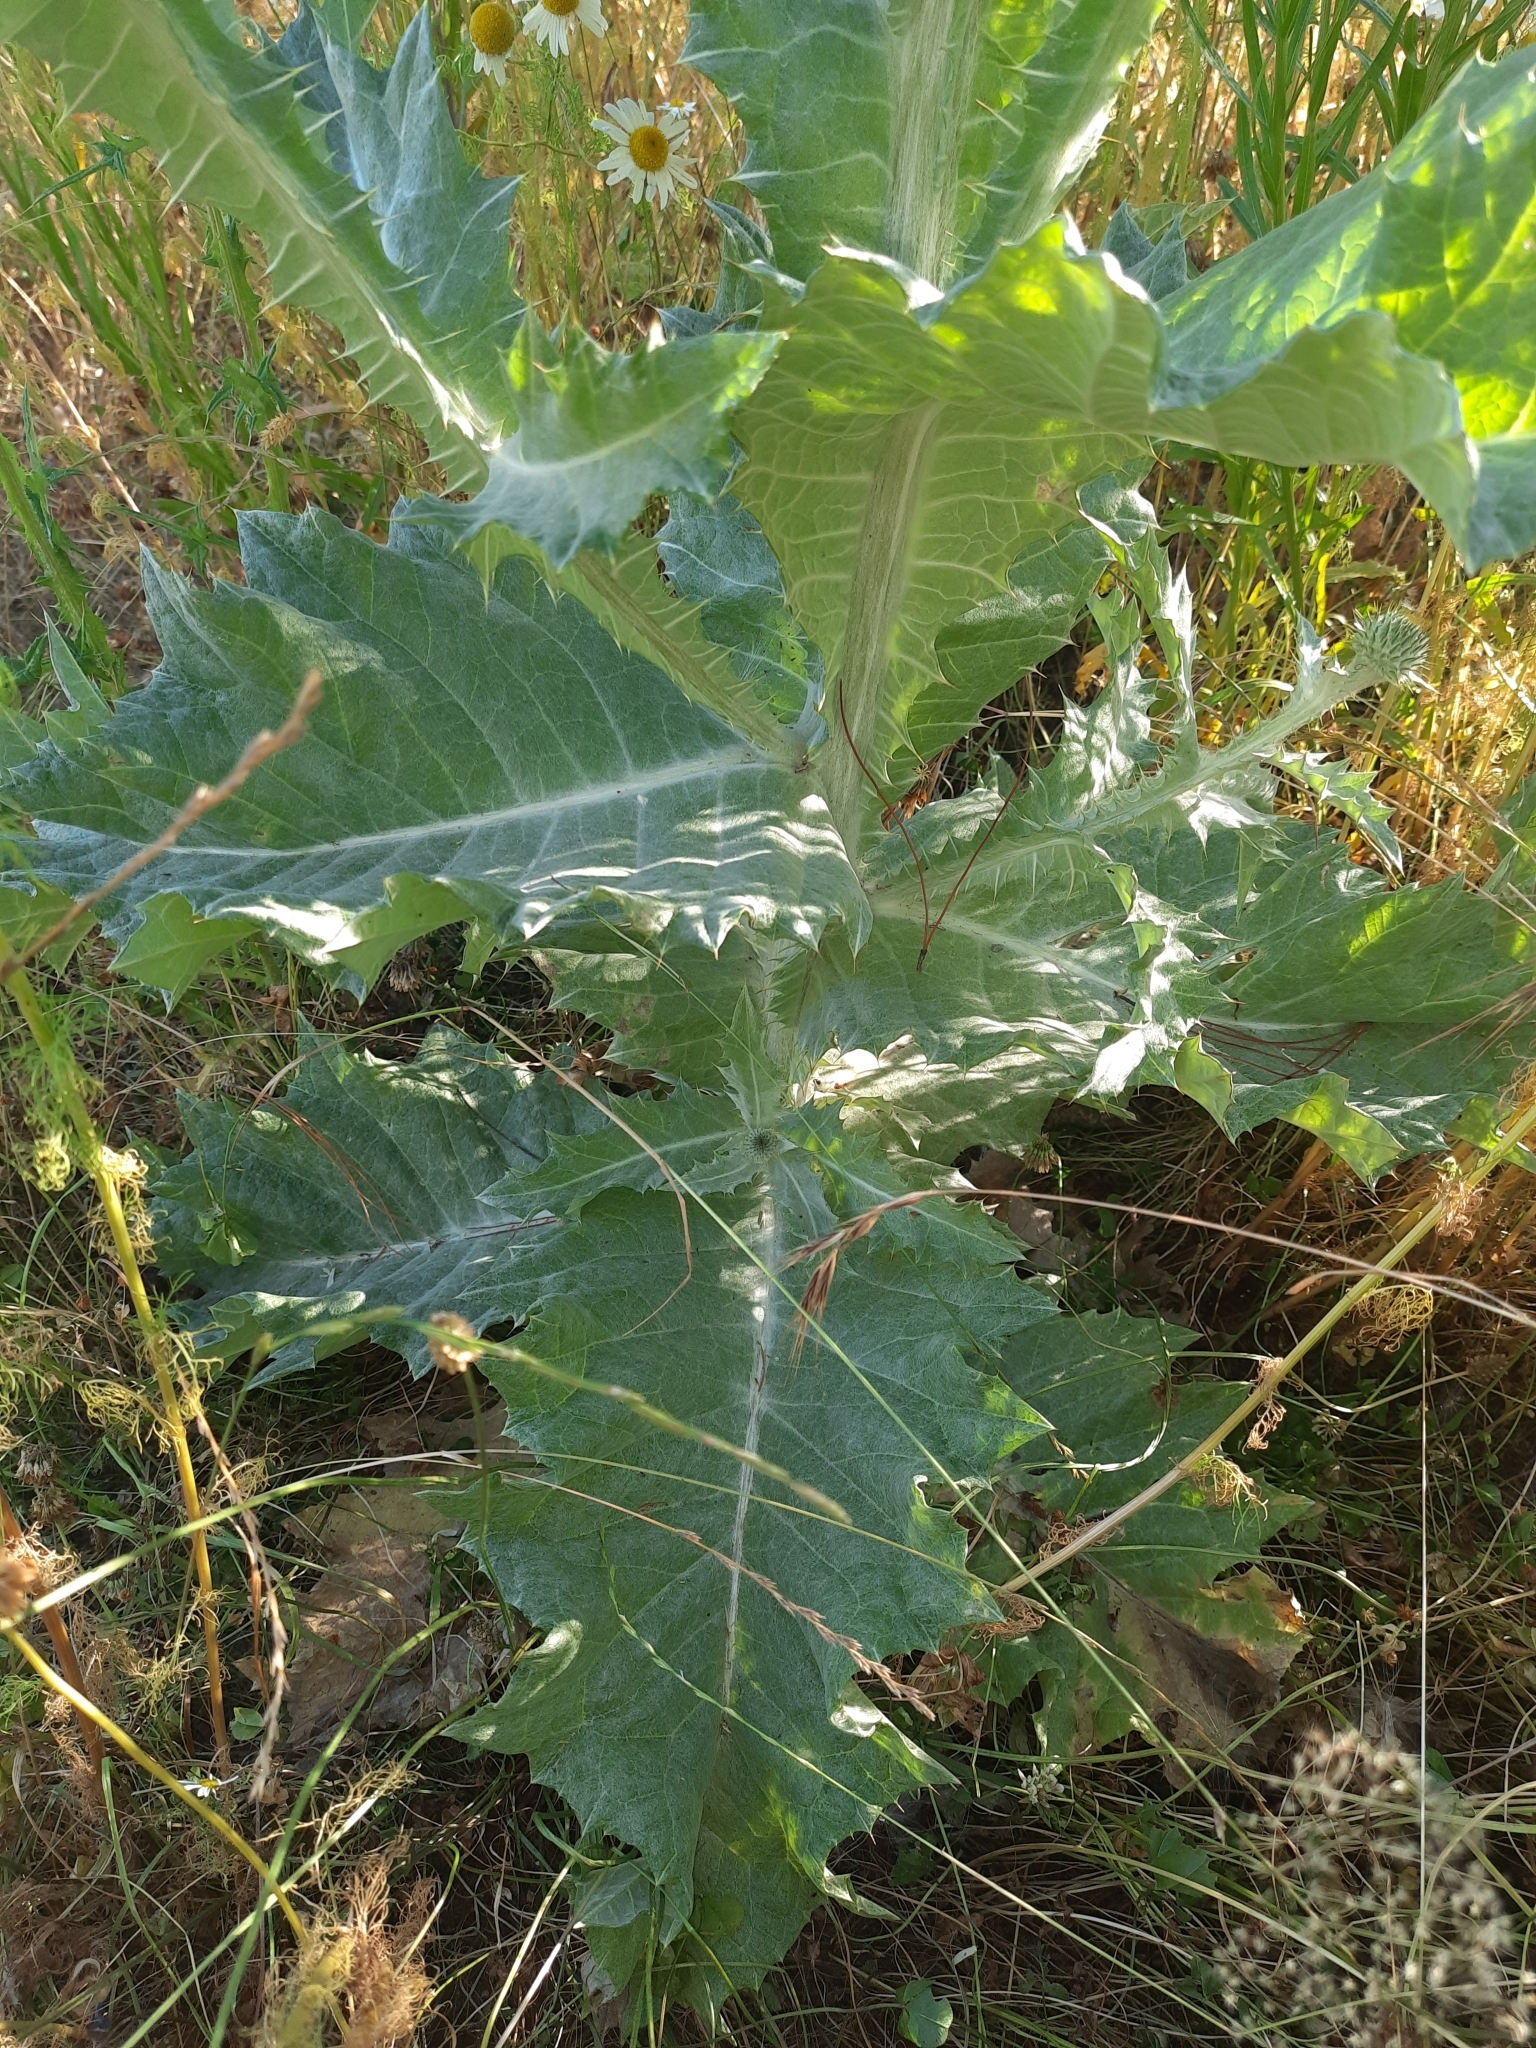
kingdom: Plantae
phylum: Tracheophyta
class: Magnoliopsida
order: Asterales
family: Asteraceae
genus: Onopordum
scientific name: Onopordum acanthium
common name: Scotch thistle
